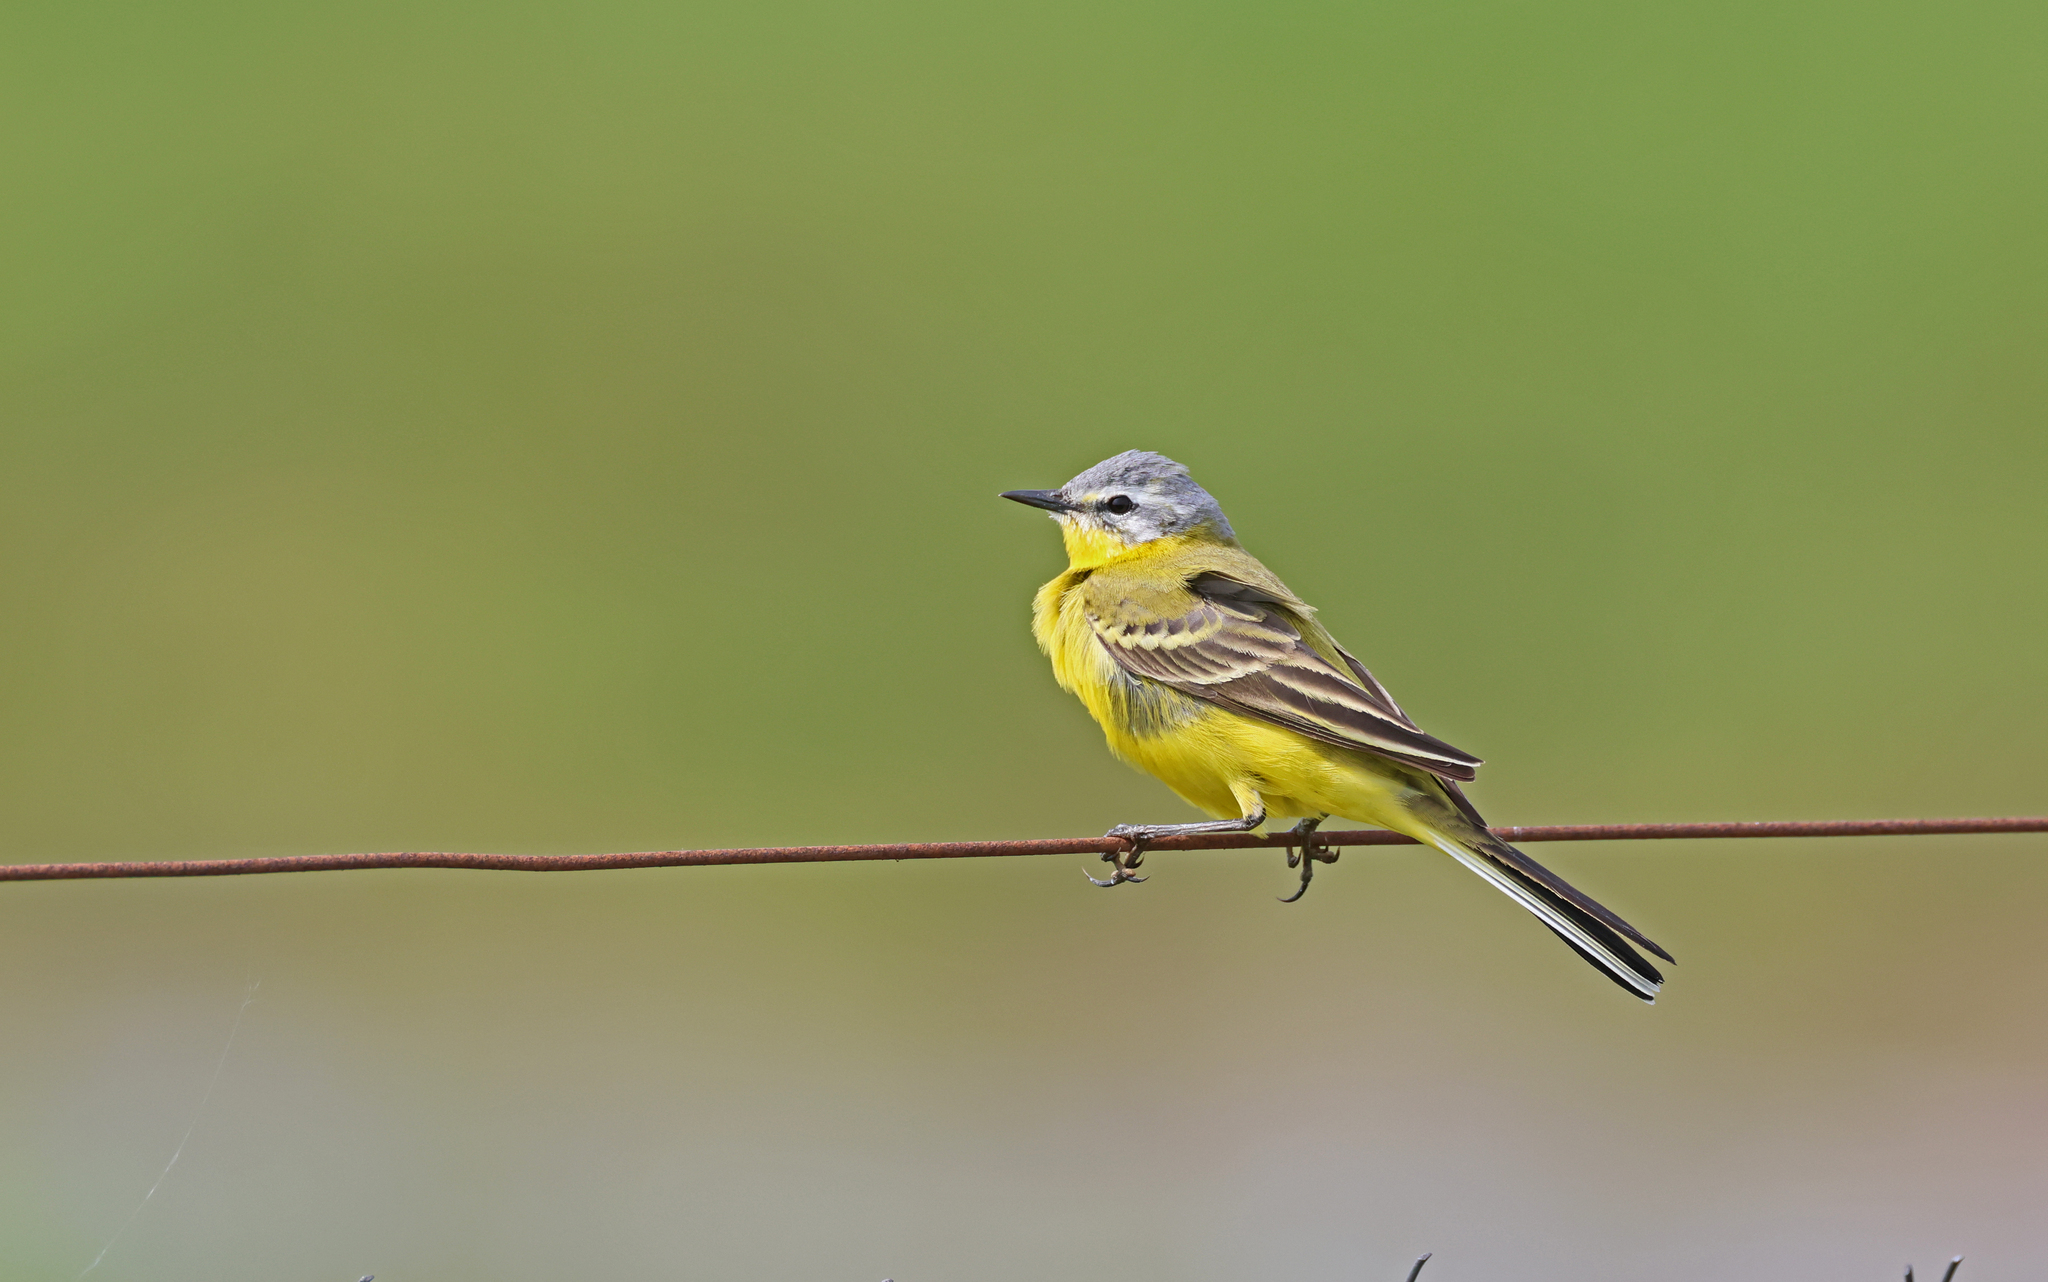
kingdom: Animalia
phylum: Chordata
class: Aves
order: Passeriformes
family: Motacillidae
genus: Motacilla
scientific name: Motacilla flava
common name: Western yellow wagtail
